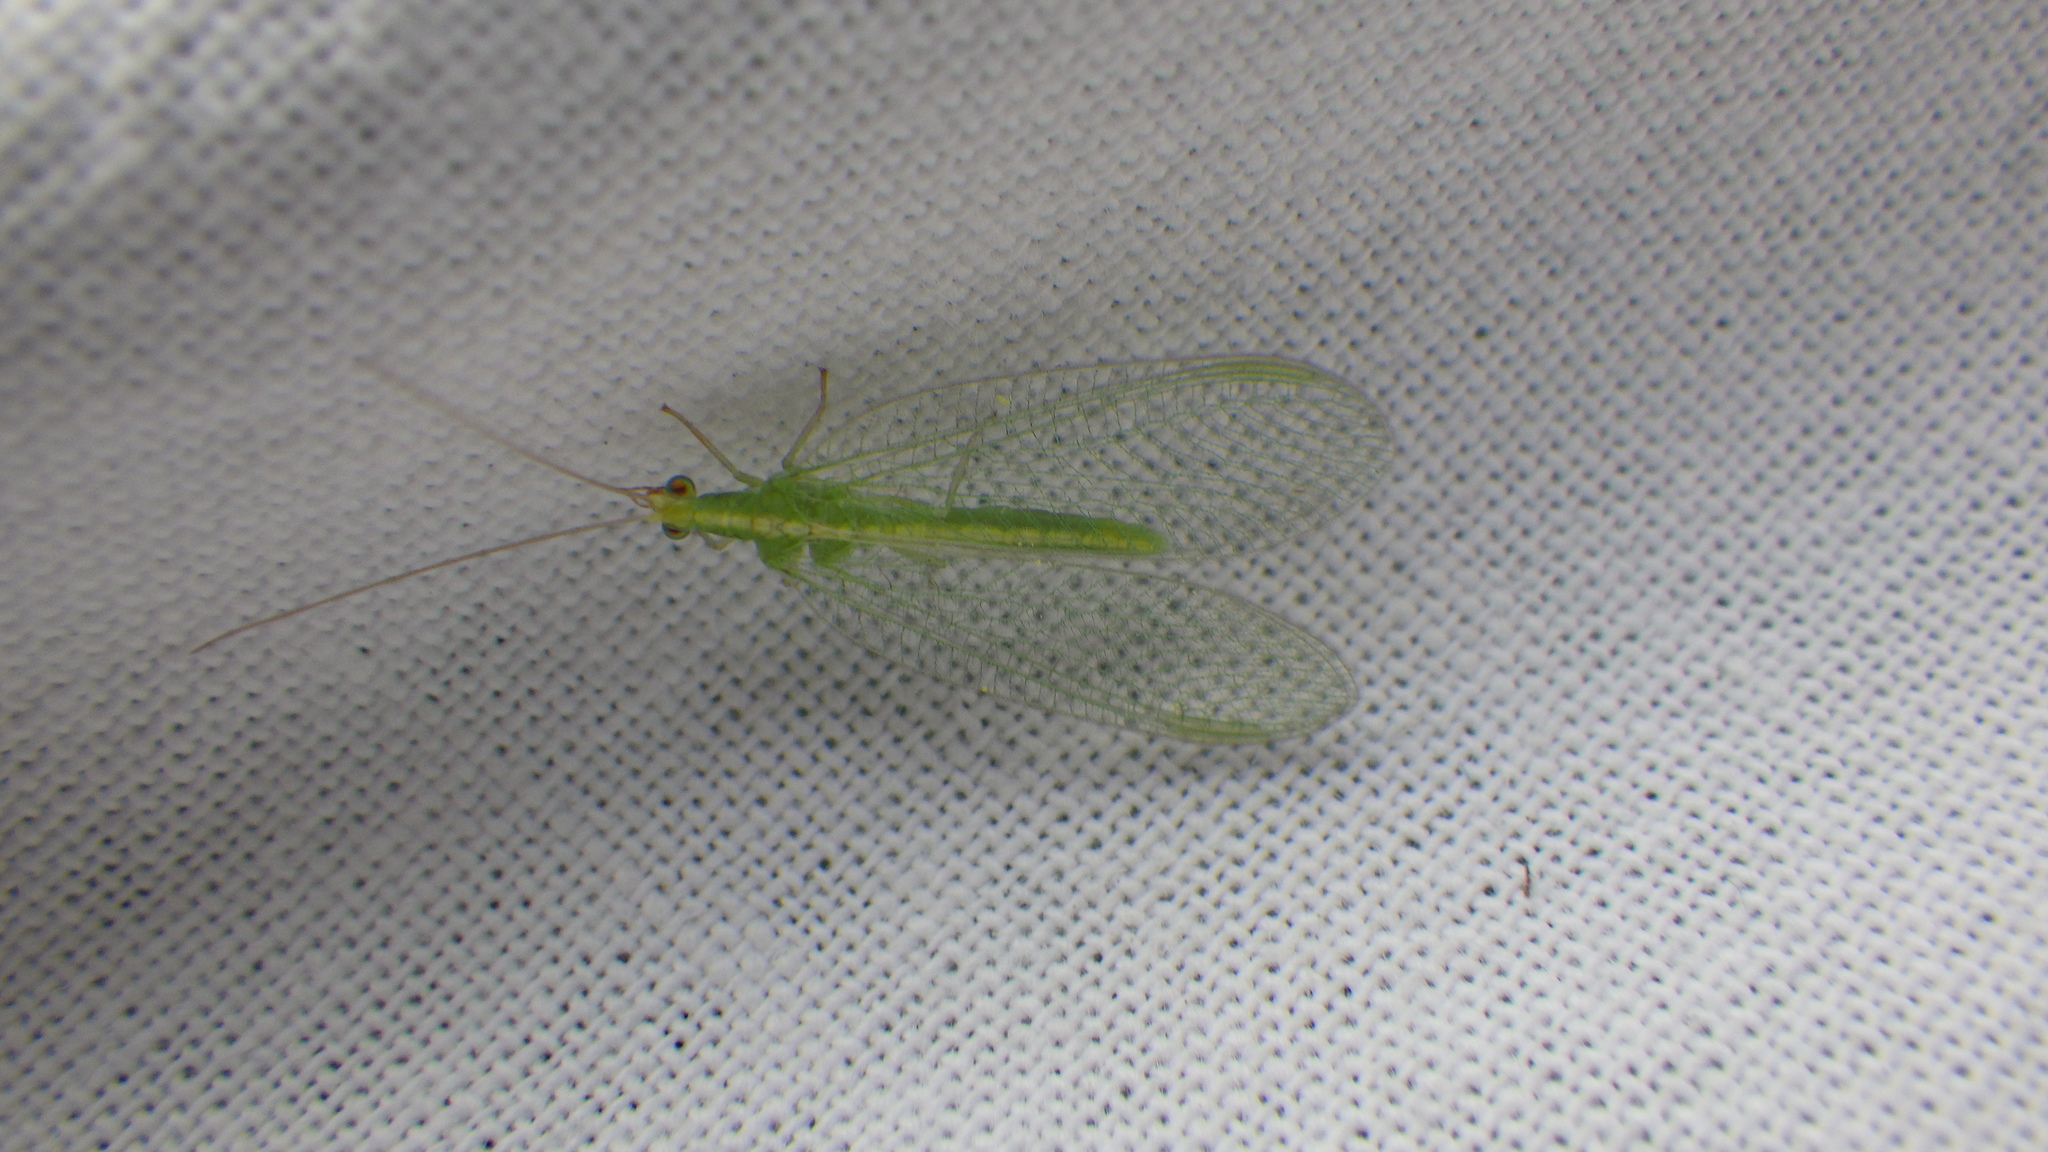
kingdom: Animalia
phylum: Arthropoda
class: Insecta
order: Neuroptera
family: Chrysopidae
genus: Chrysoperla
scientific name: Chrysoperla
